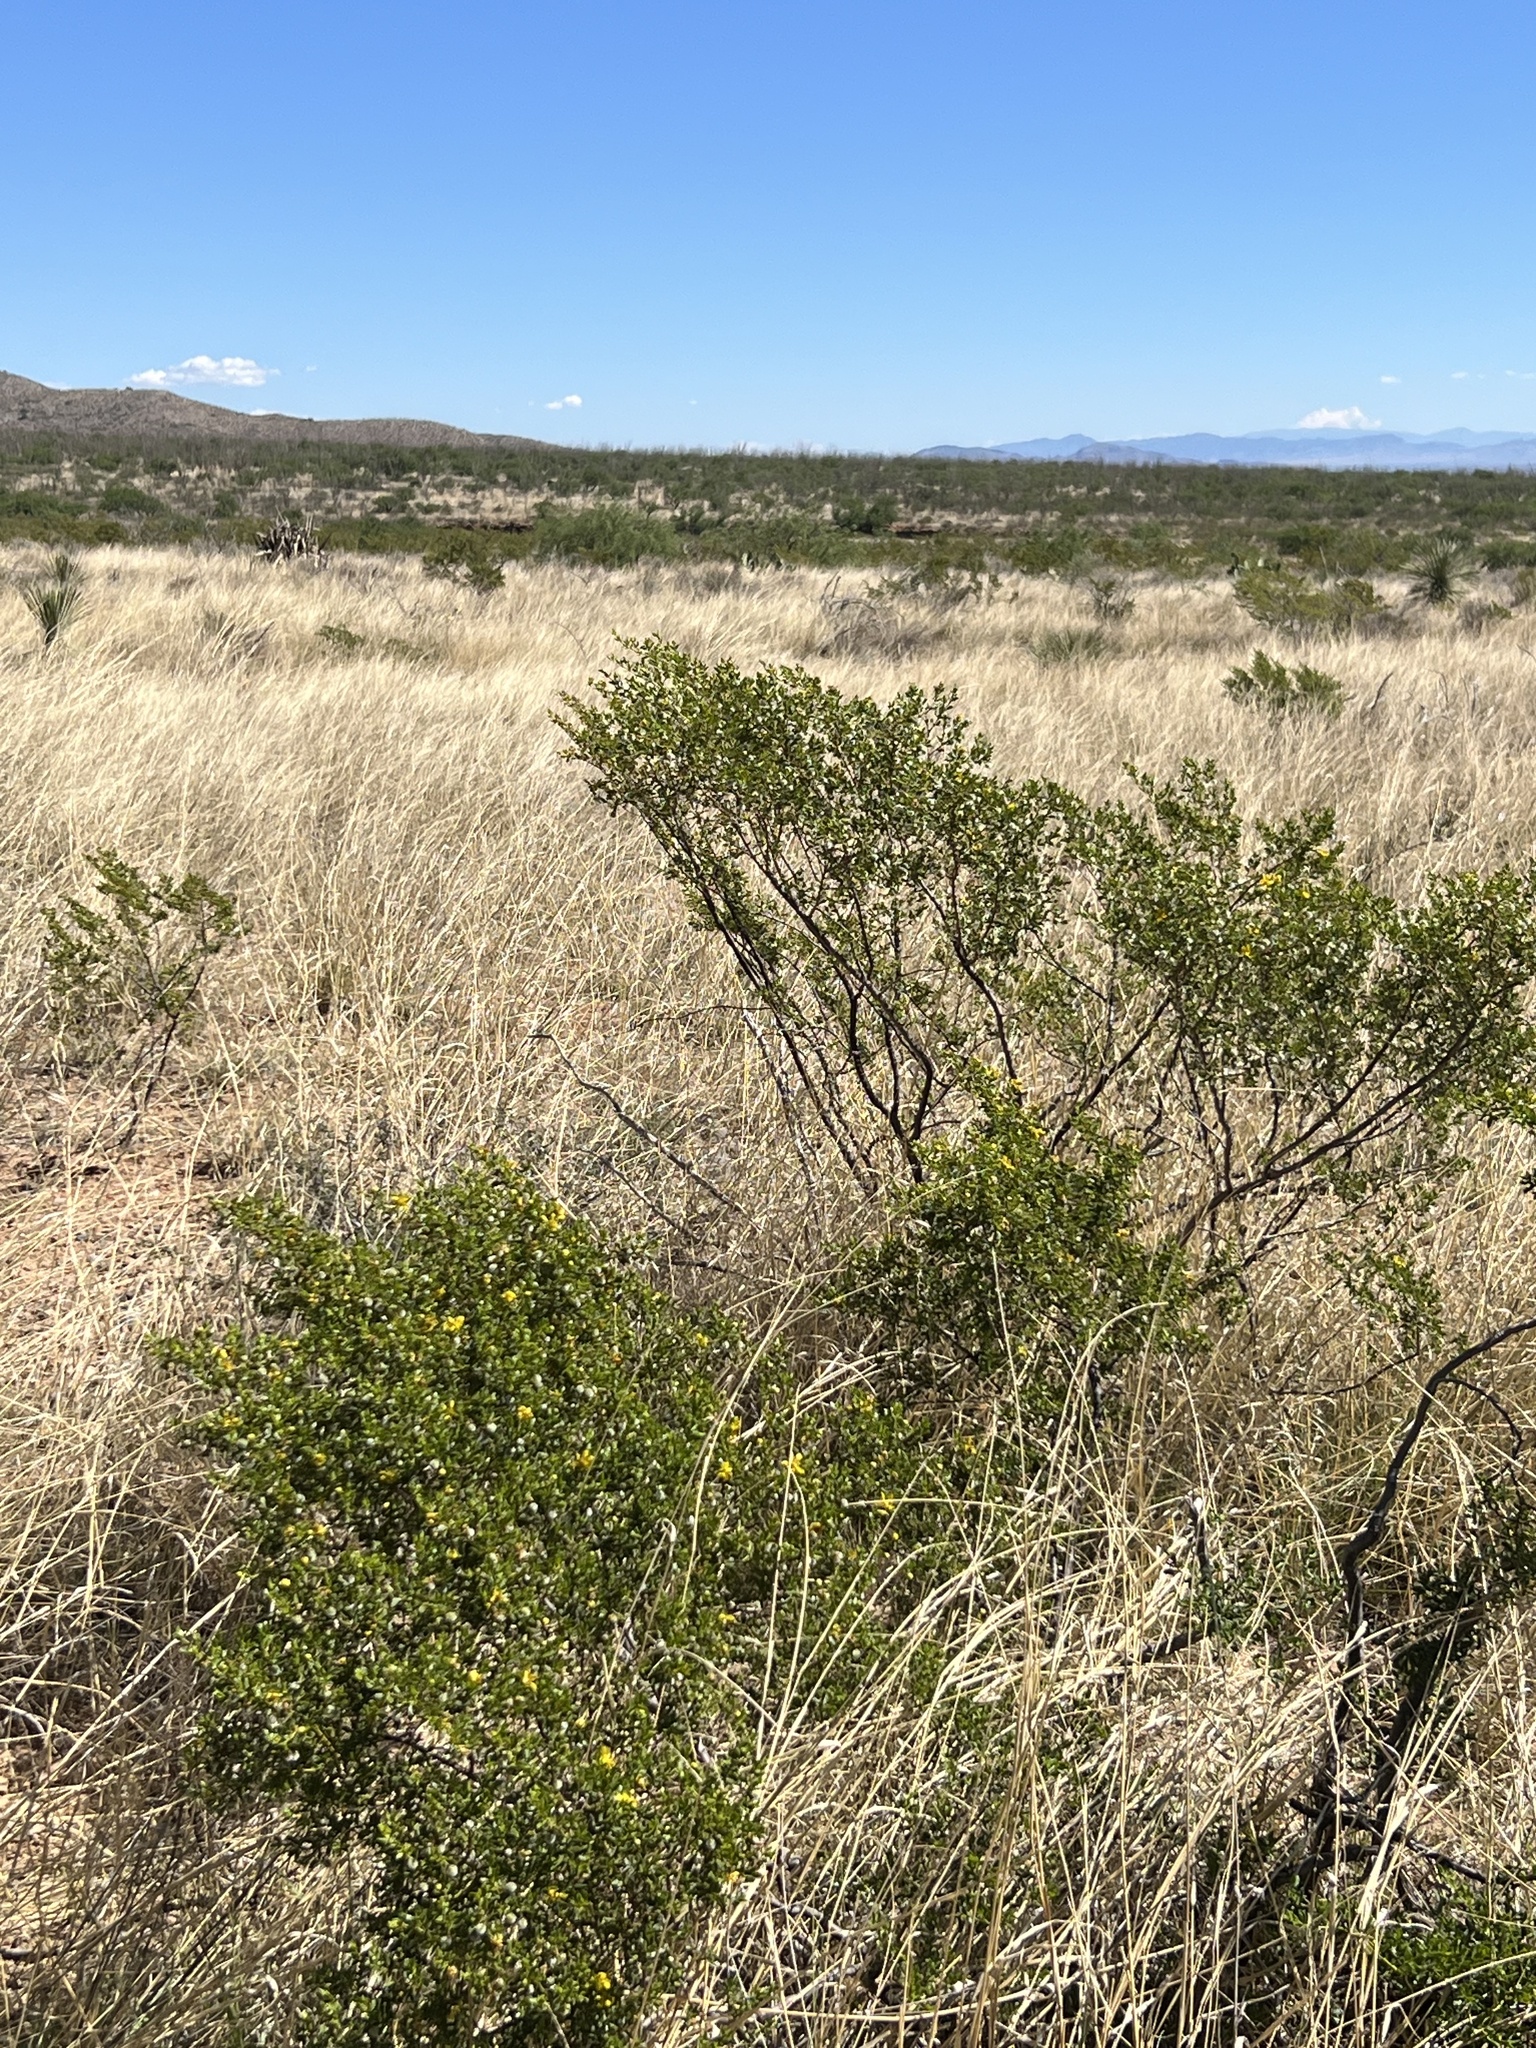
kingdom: Plantae
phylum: Tracheophyta
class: Magnoliopsida
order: Zygophyllales
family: Zygophyllaceae
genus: Larrea
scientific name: Larrea tridentata
